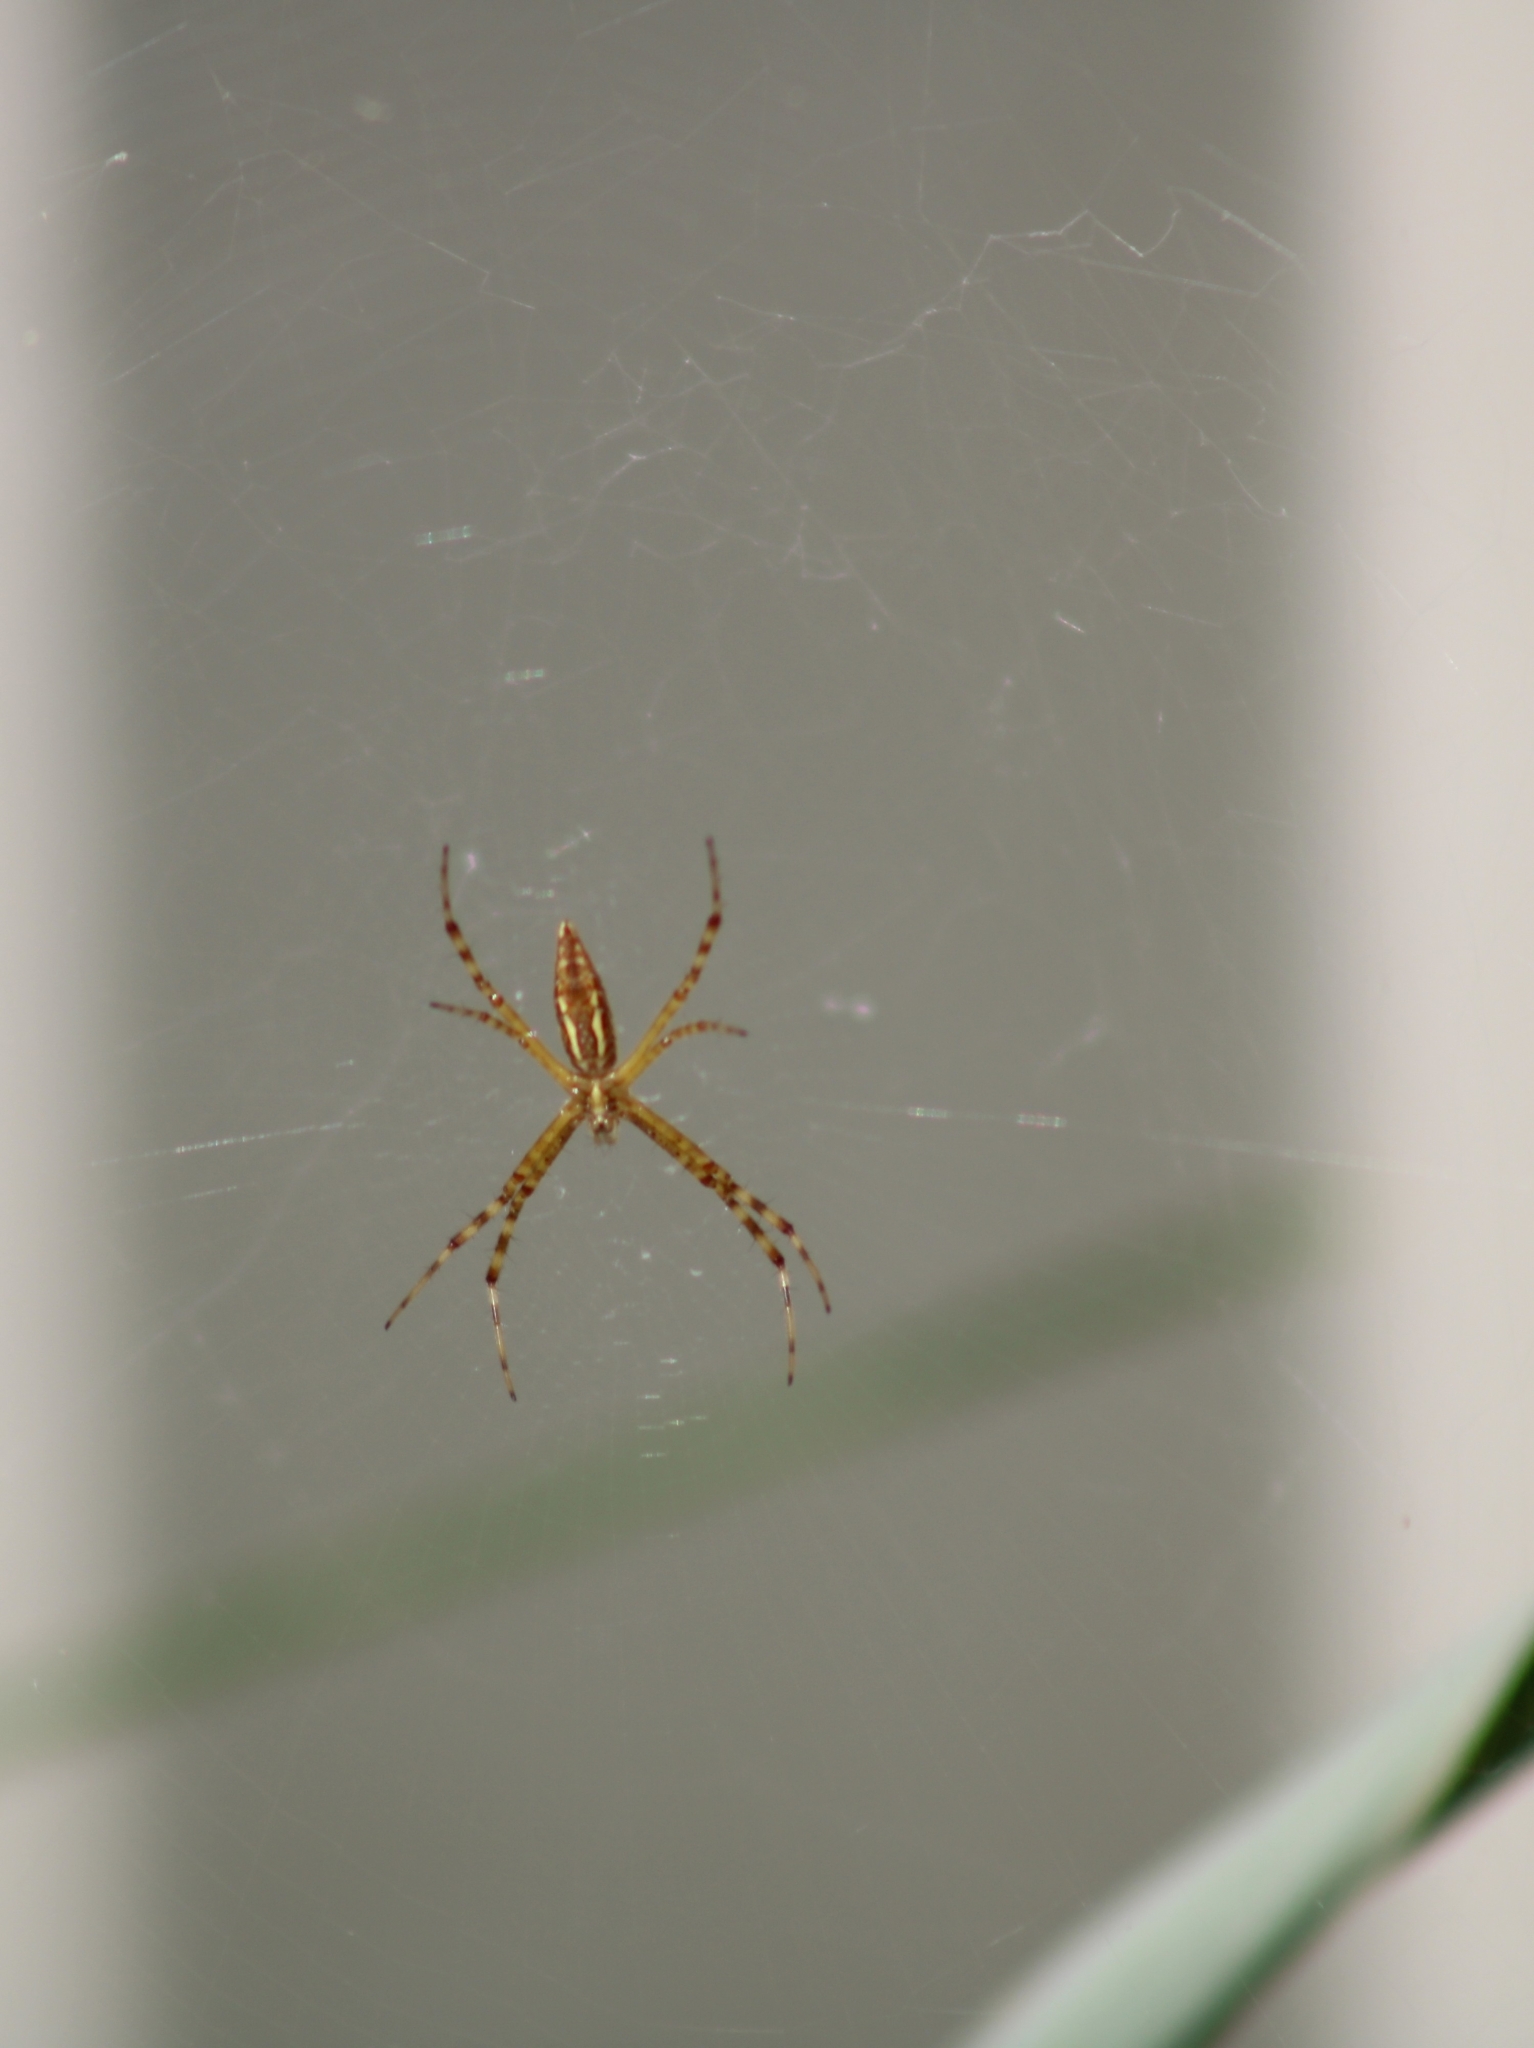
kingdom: Animalia
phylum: Arthropoda
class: Arachnida
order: Araneae
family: Araneidae
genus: Argiope
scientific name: Argiope trifasciata
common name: Banded garden spider
